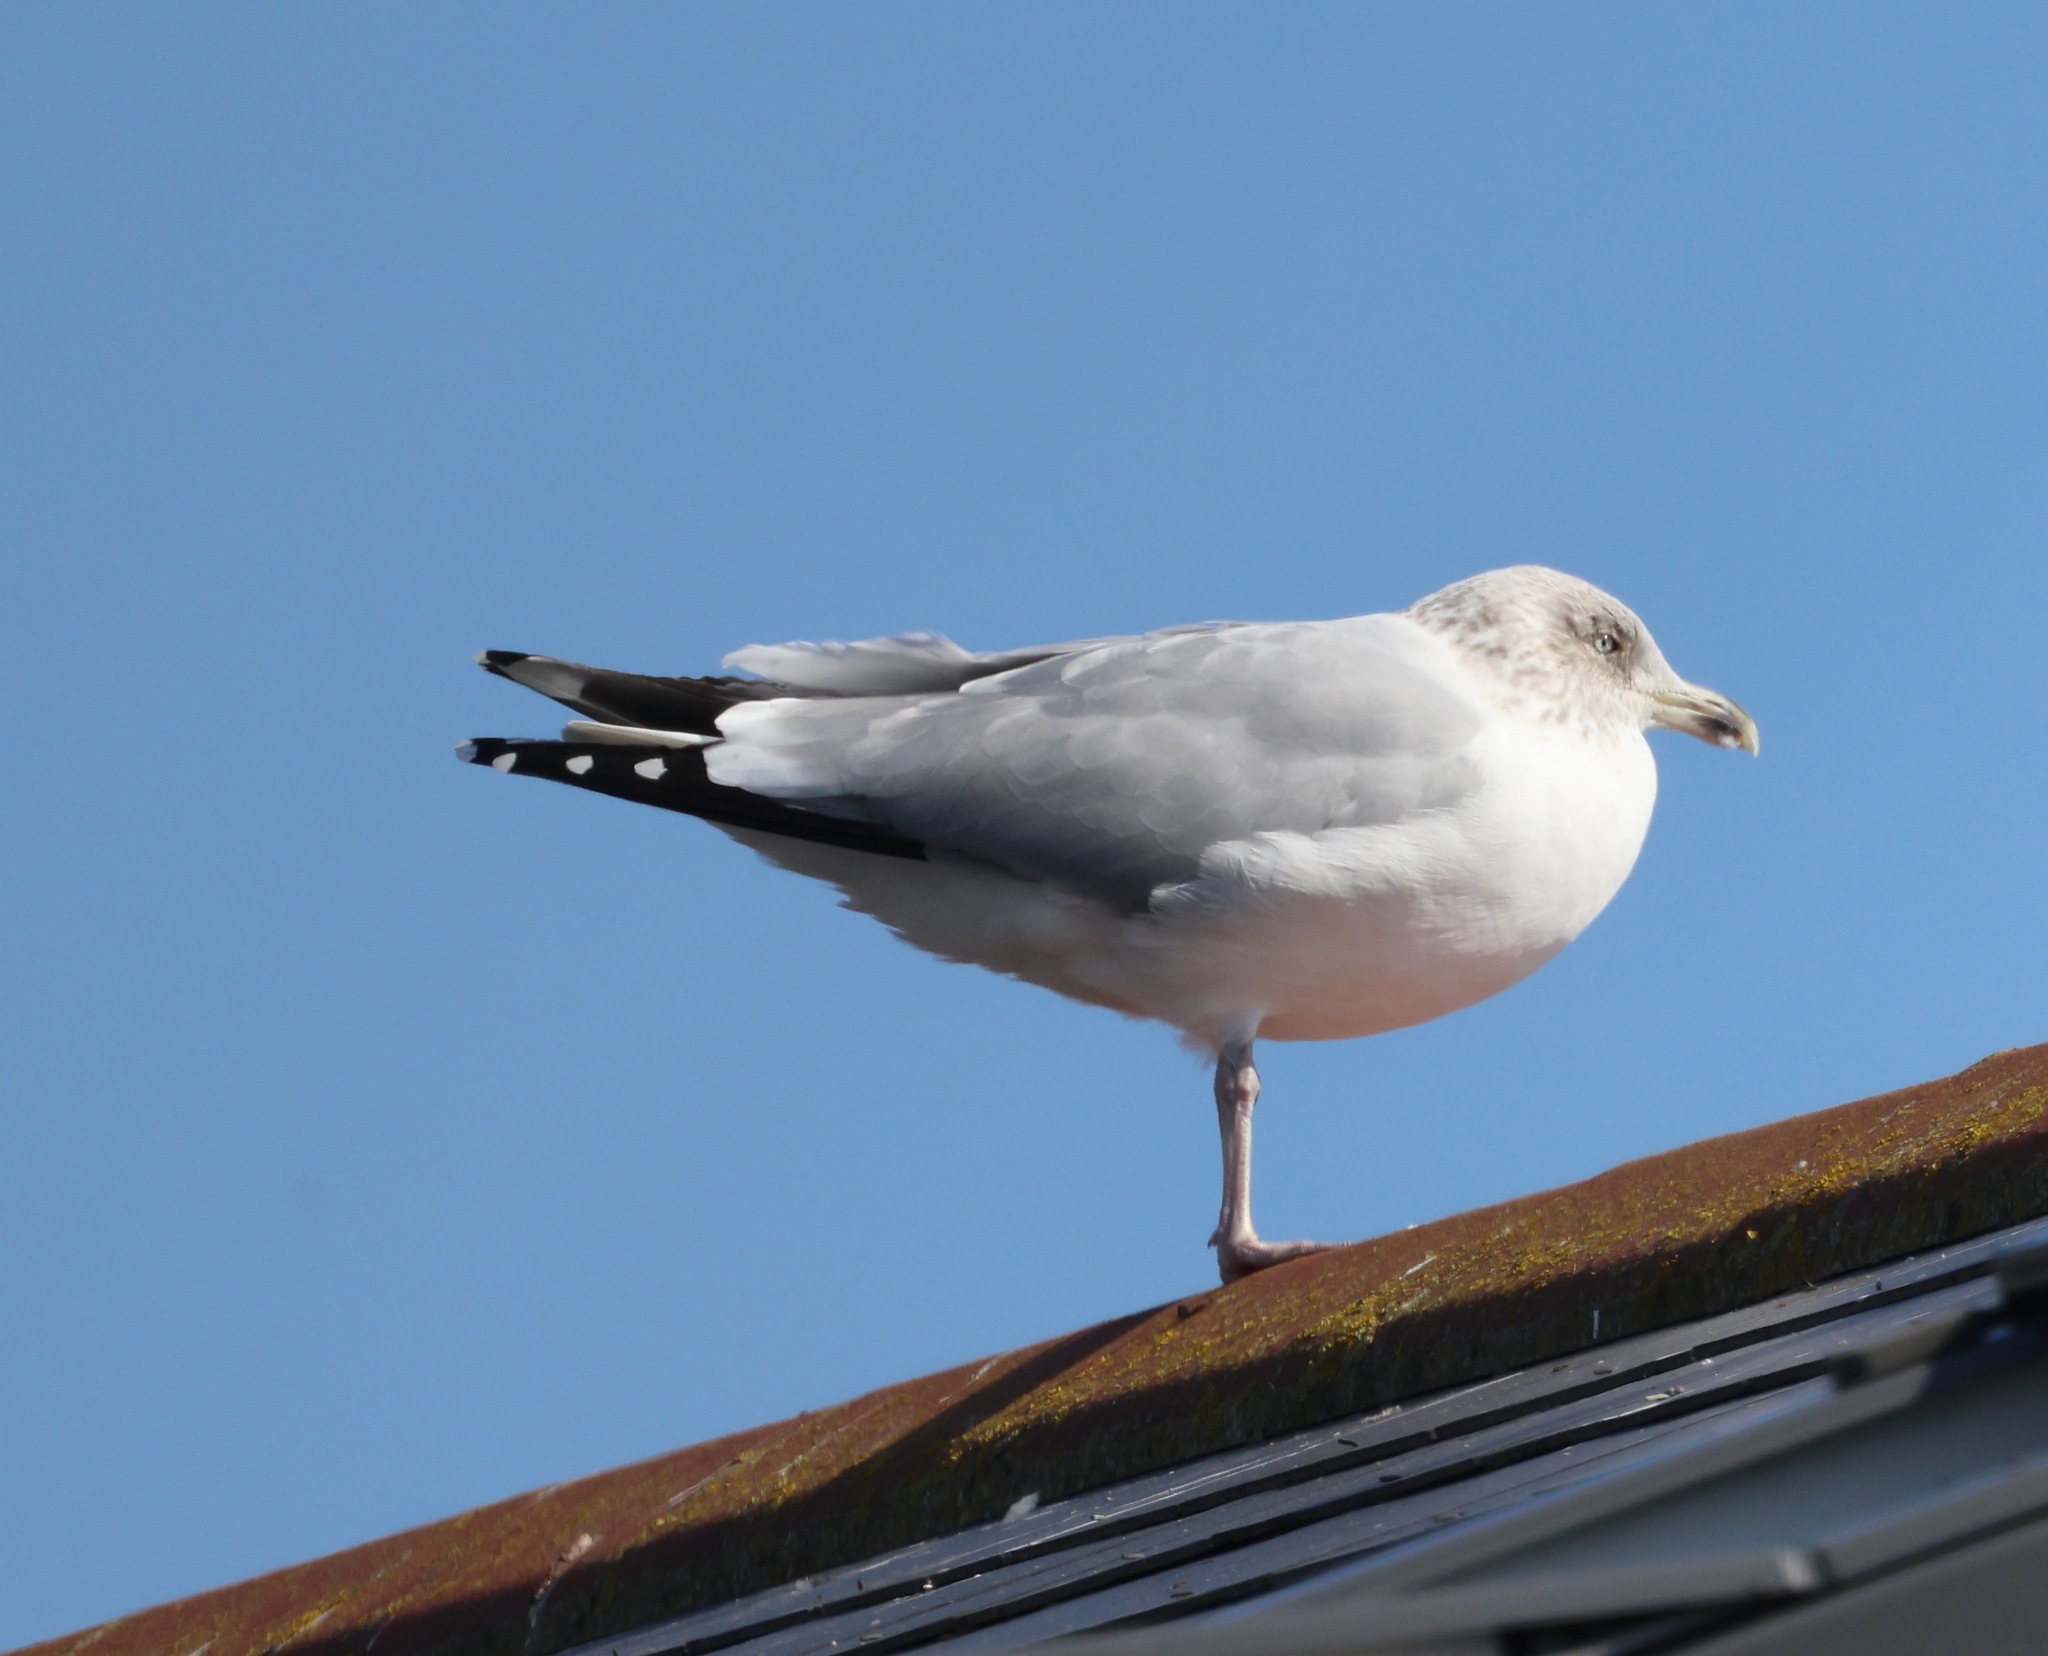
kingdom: Animalia
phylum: Chordata
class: Aves
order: Charadriiformes
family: Laridae
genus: Larus
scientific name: Larus argentatus
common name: Herring gull
